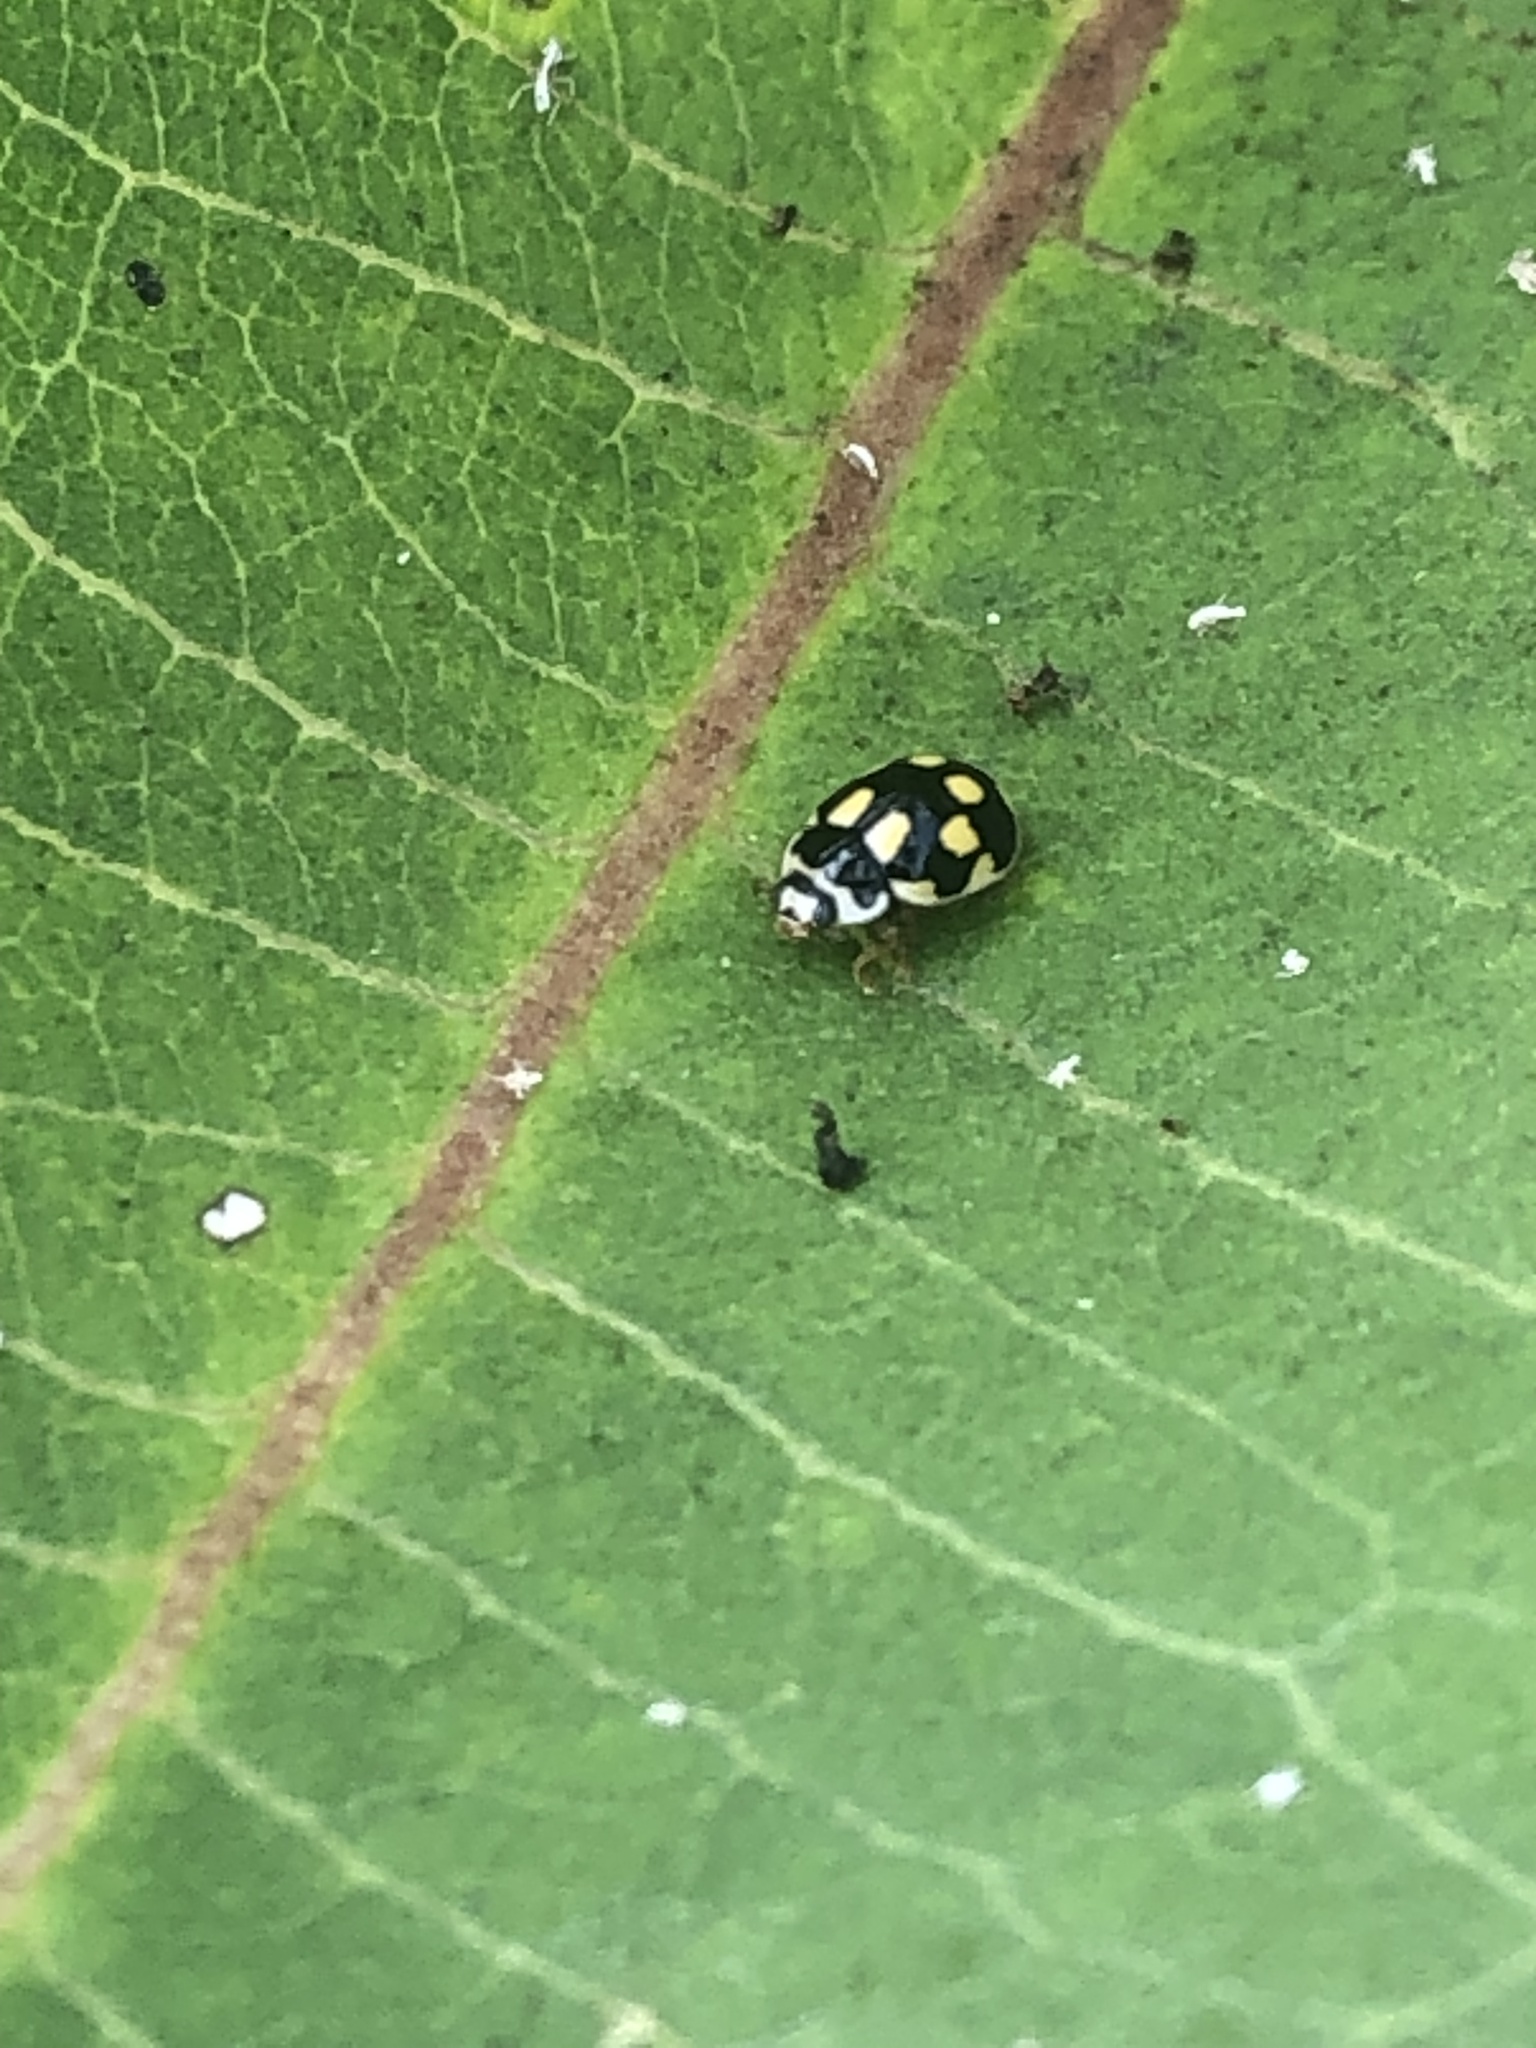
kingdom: Animalia
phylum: Arthropoda
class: Insecta
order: Coleoptera
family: Coccinellidae
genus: Propylaea
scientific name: Propylaea quatuordecimpunctata
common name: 14-spotted ladybird beetle
